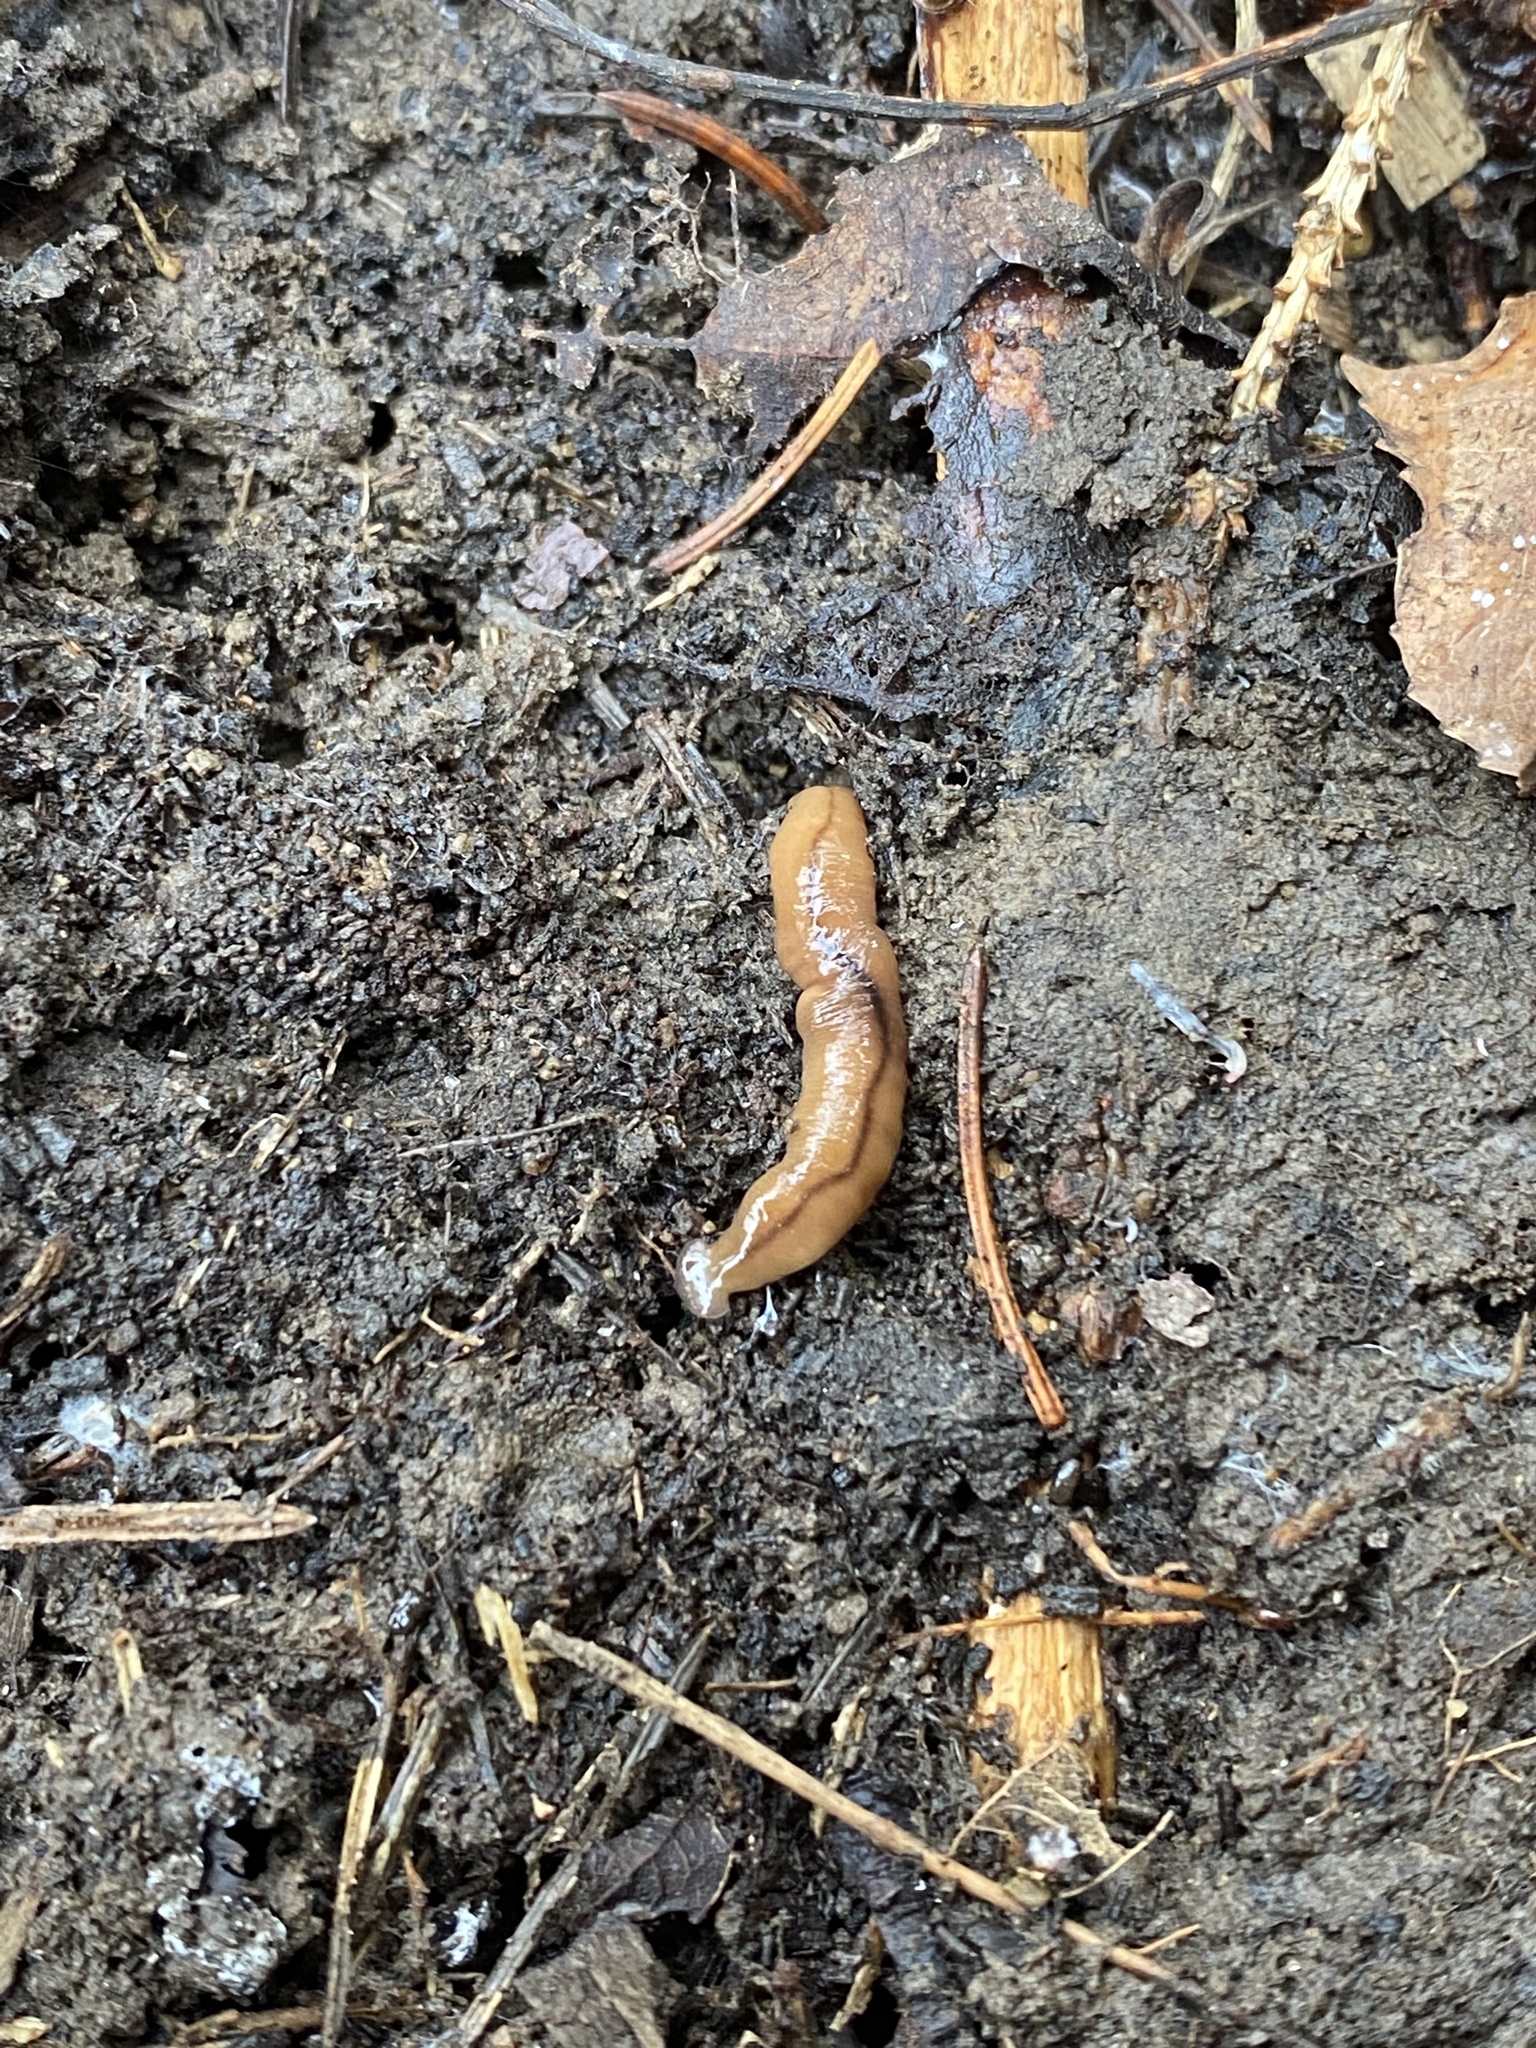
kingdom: Animalia
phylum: Platyhelminthes
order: Tricladida
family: Geoplanidae
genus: Bipalium
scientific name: Bipalium adventitium
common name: Land planarian
